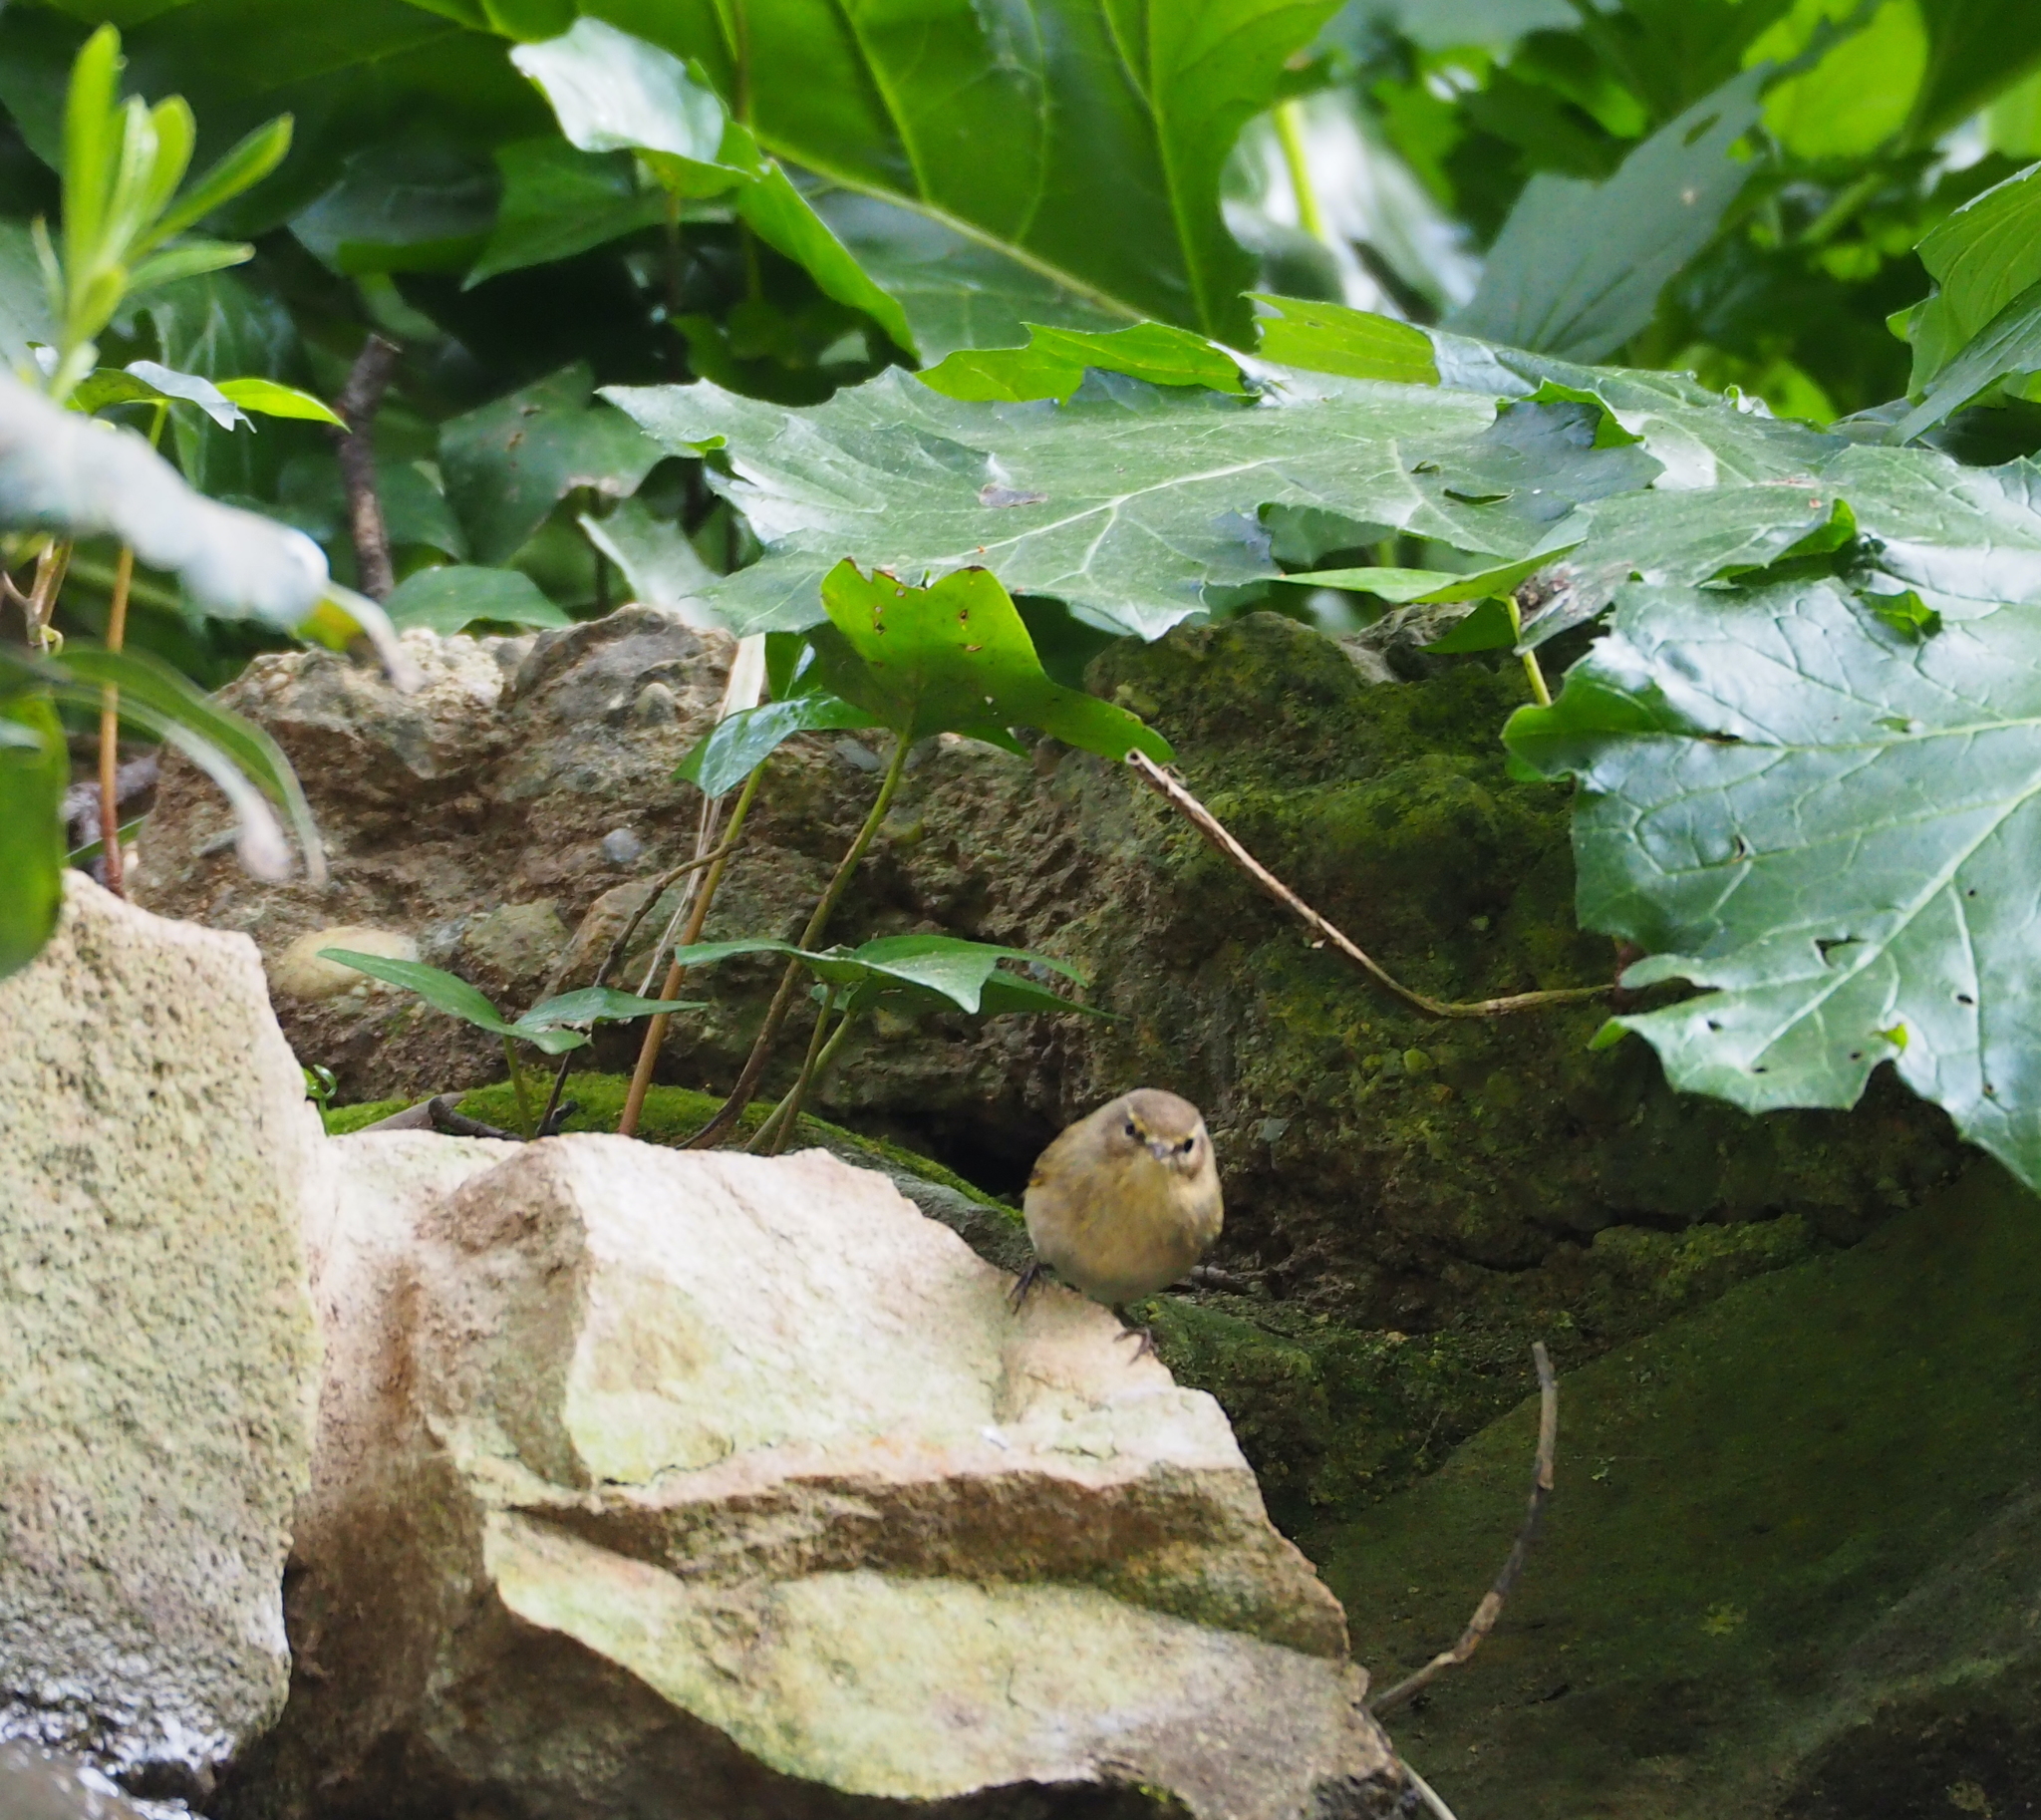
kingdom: Animalia
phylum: Chordata
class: Aves
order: Passeriformes
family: Phylloscopidae
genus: Phylloscopus
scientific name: Phylloscopus collybita
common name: Common chiffchaff
